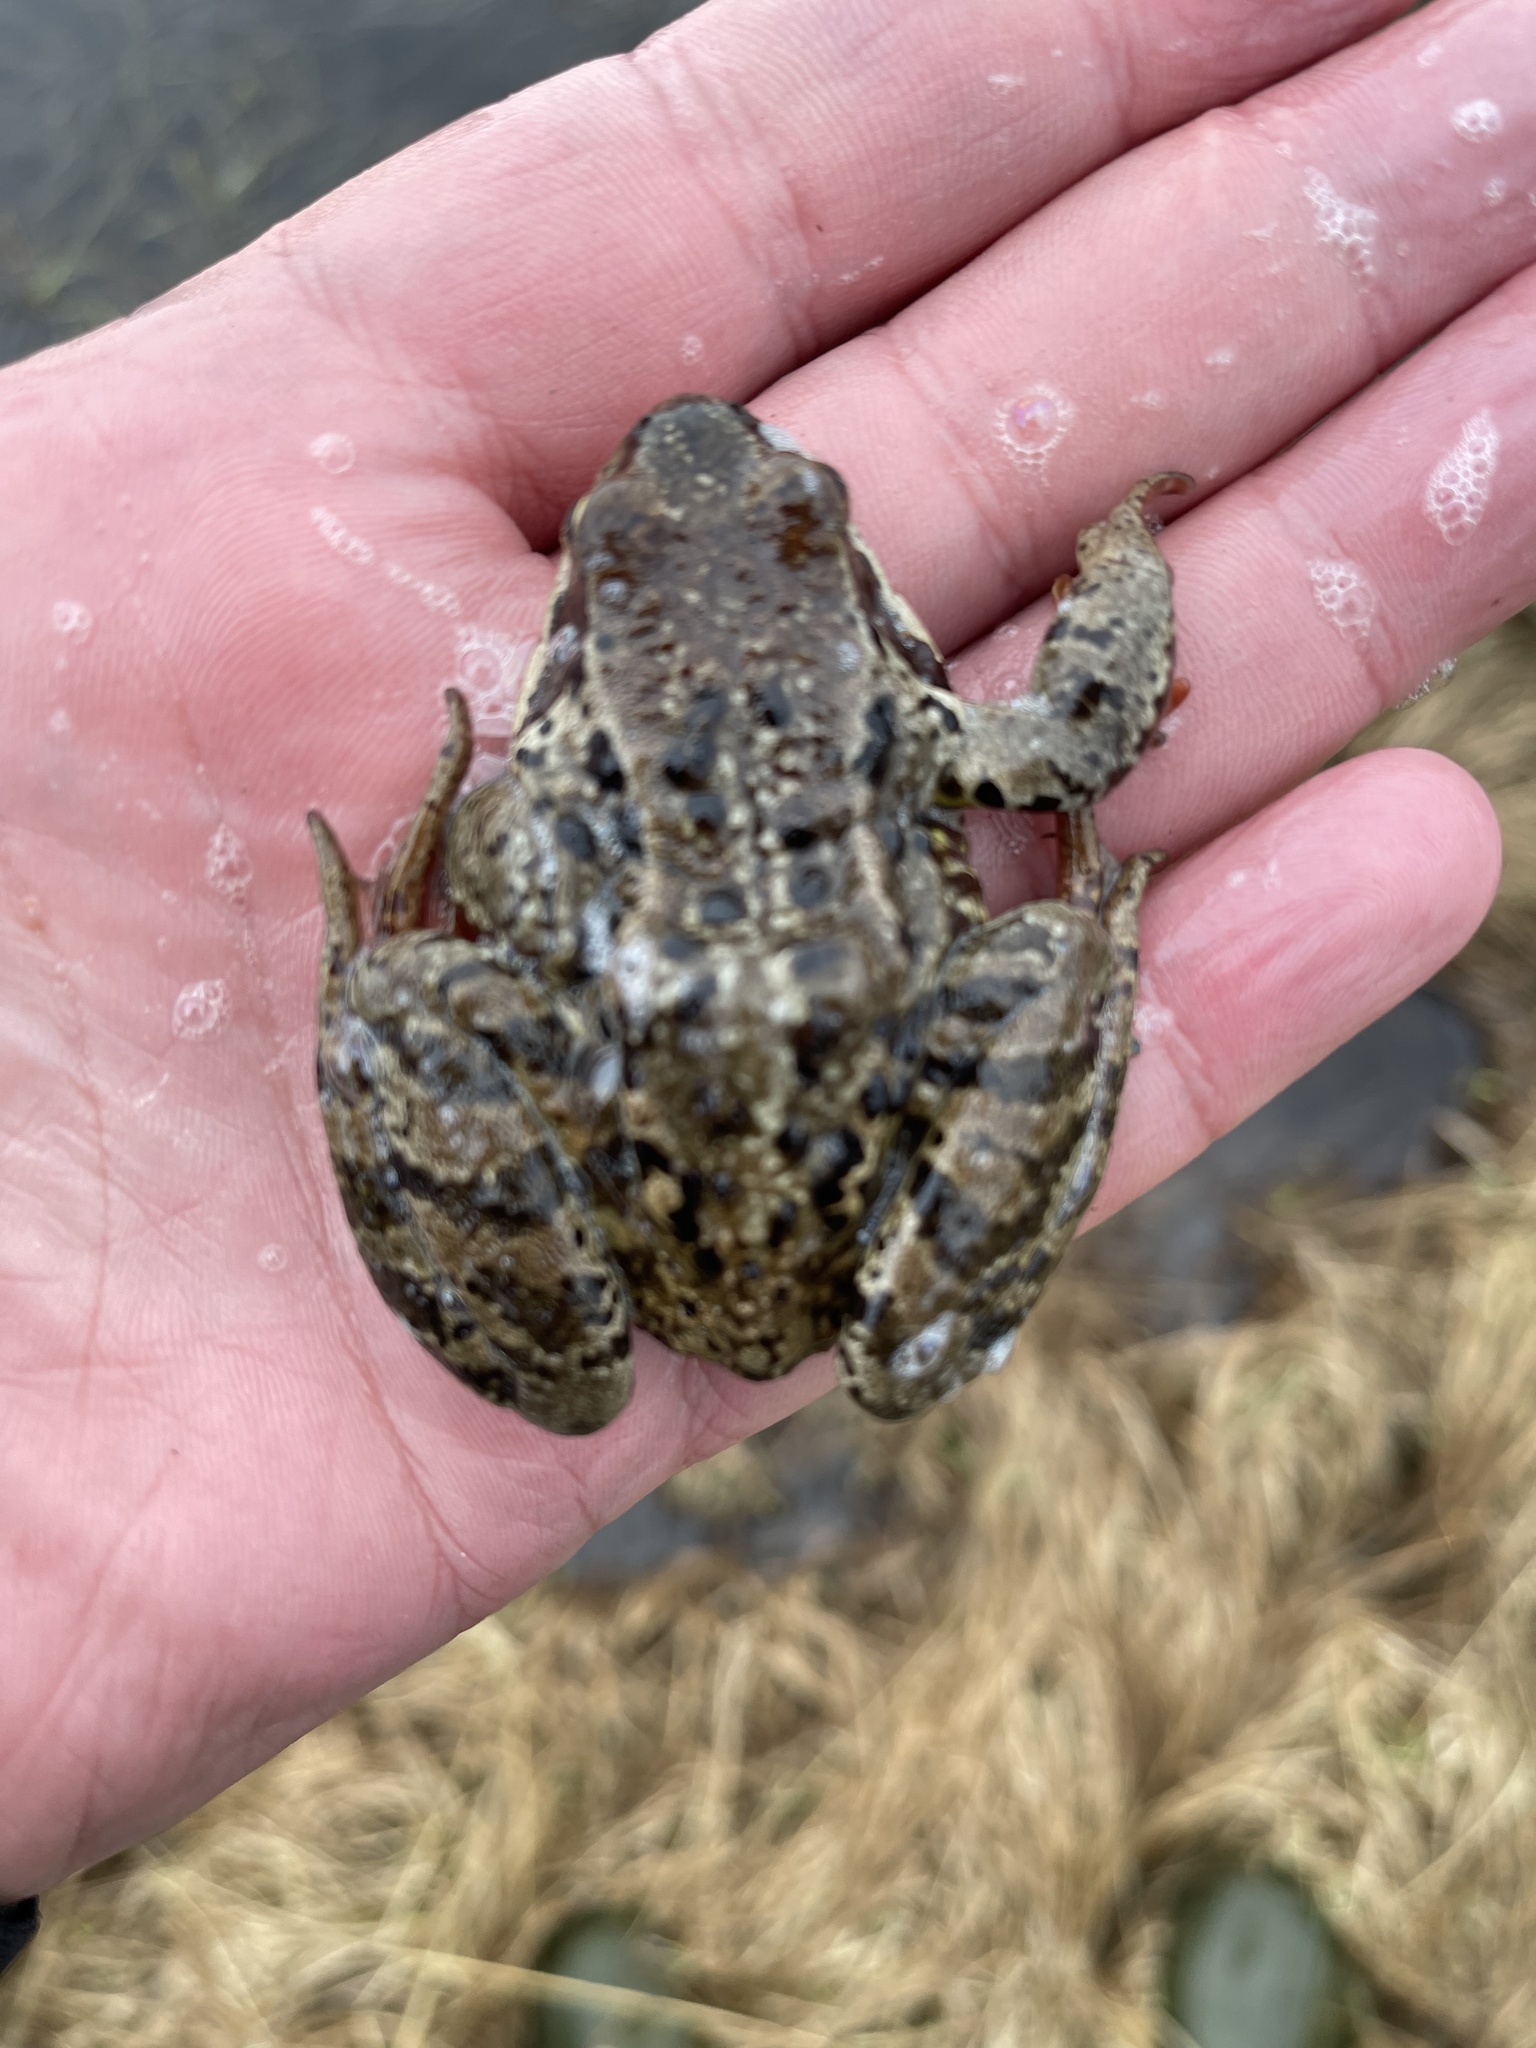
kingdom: Animalia
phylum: Chordata
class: Amphibia
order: Anura
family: Ranidae
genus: Rana
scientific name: Rana temporaria
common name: Common frog
